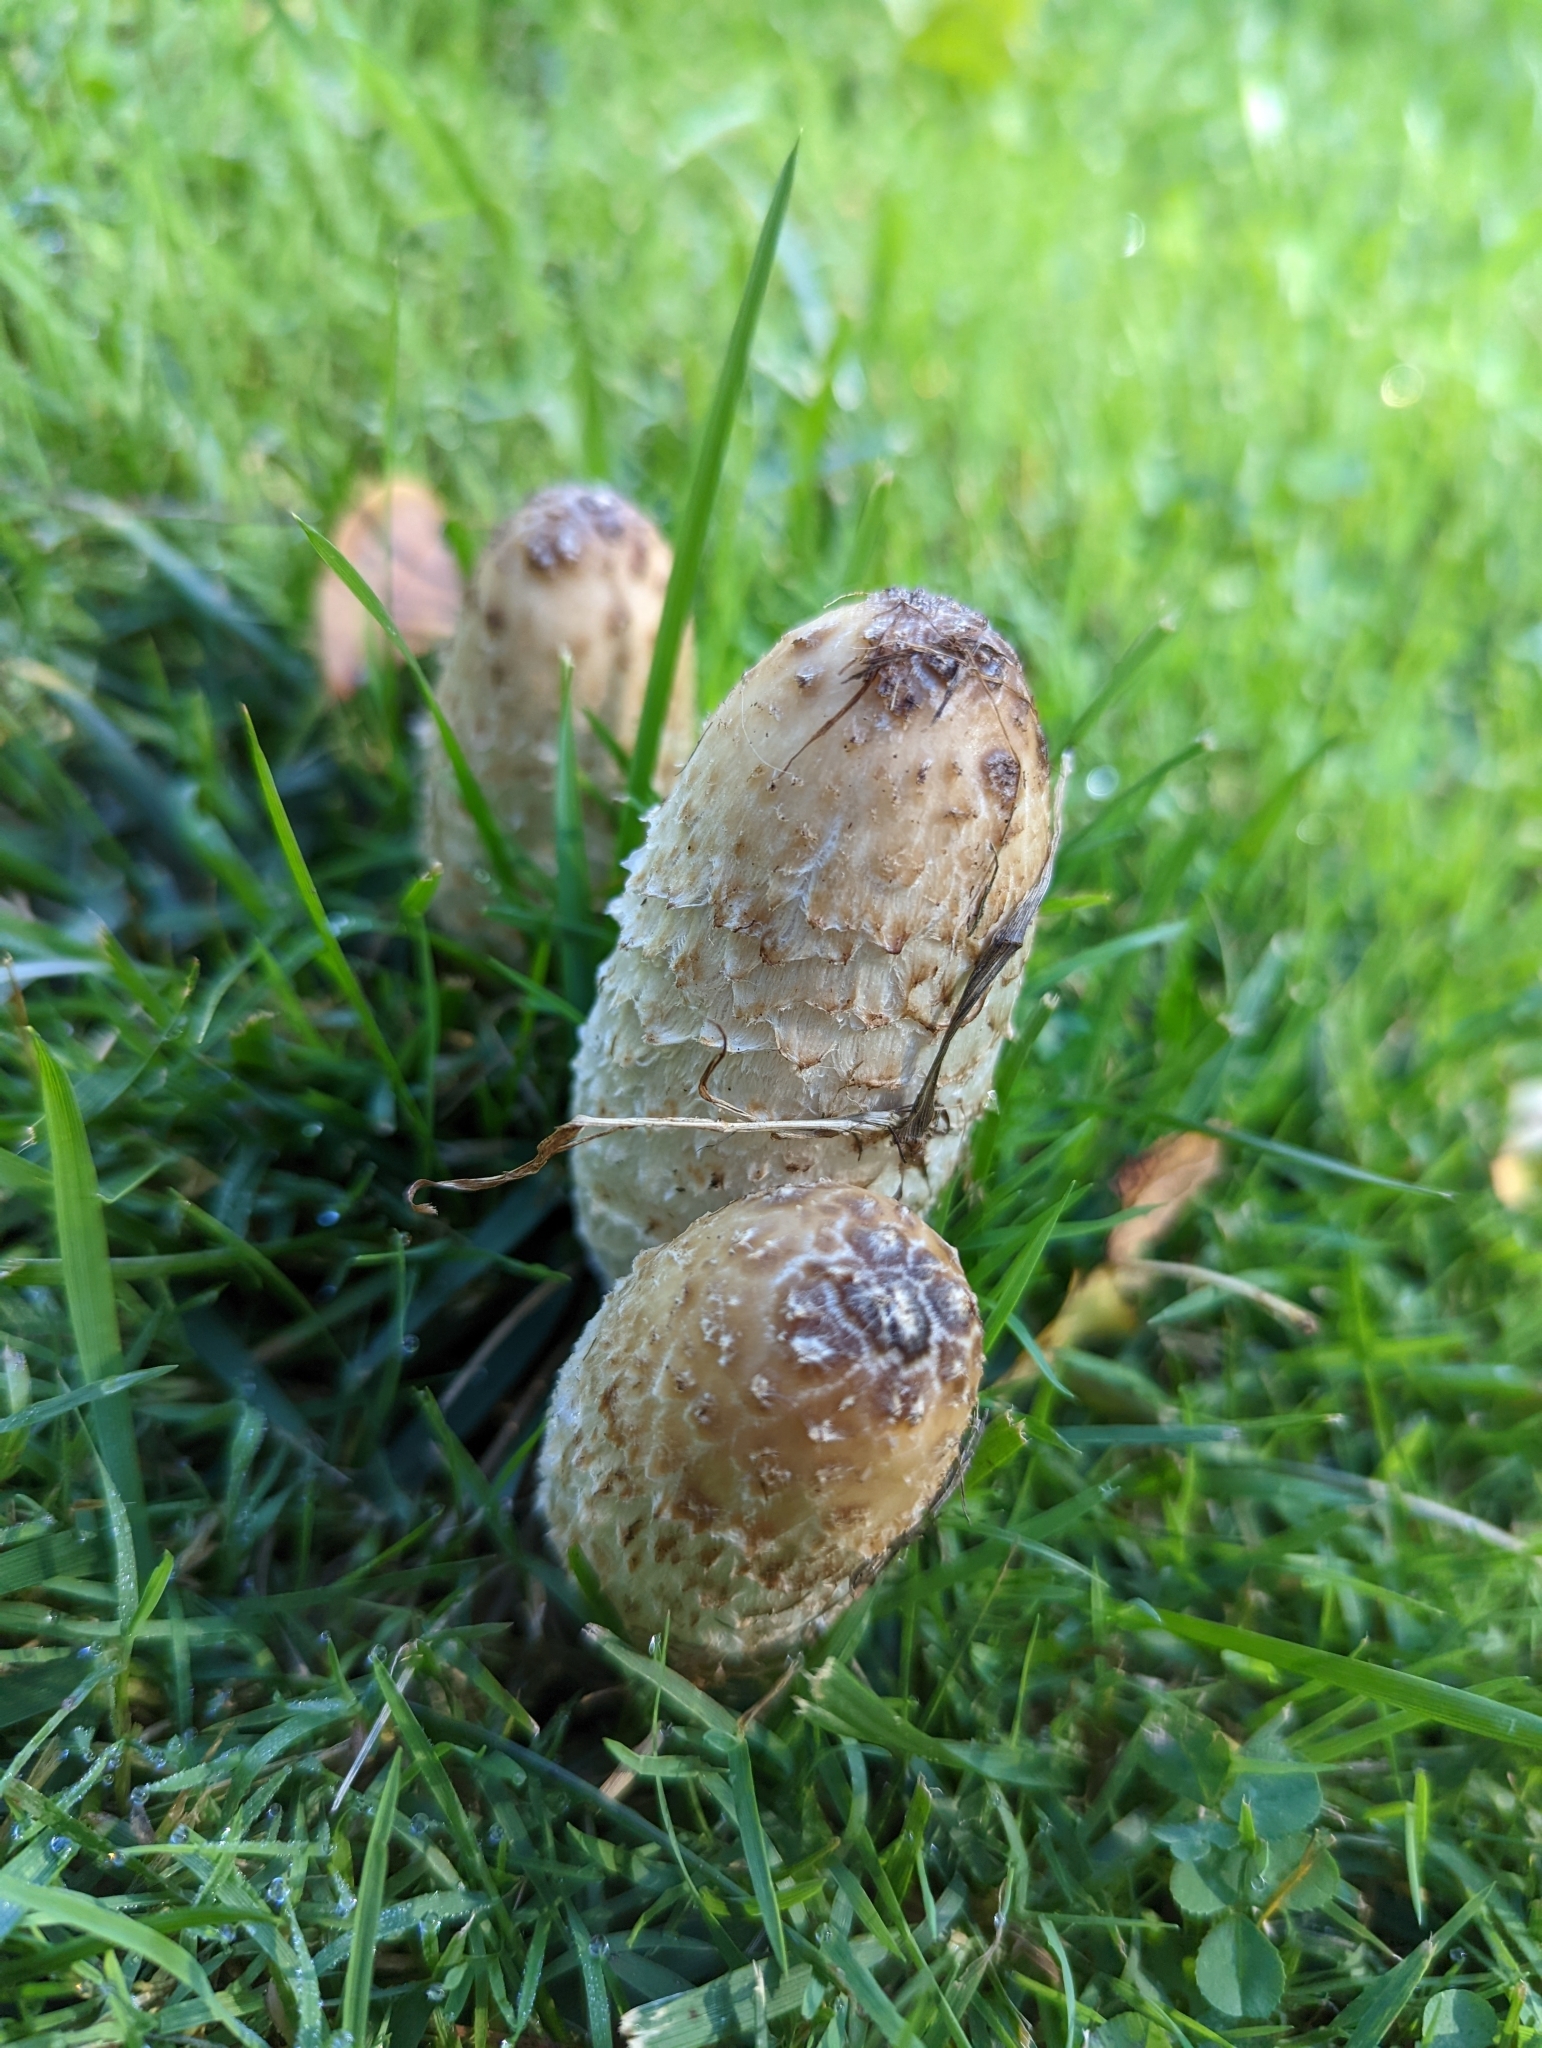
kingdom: Fungi
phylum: Basidiomycota
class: Agaricomycetes
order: Agaricales
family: Agaricaceae
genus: Coprinus
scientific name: Coprinus comatus
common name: Lawyer's wig
